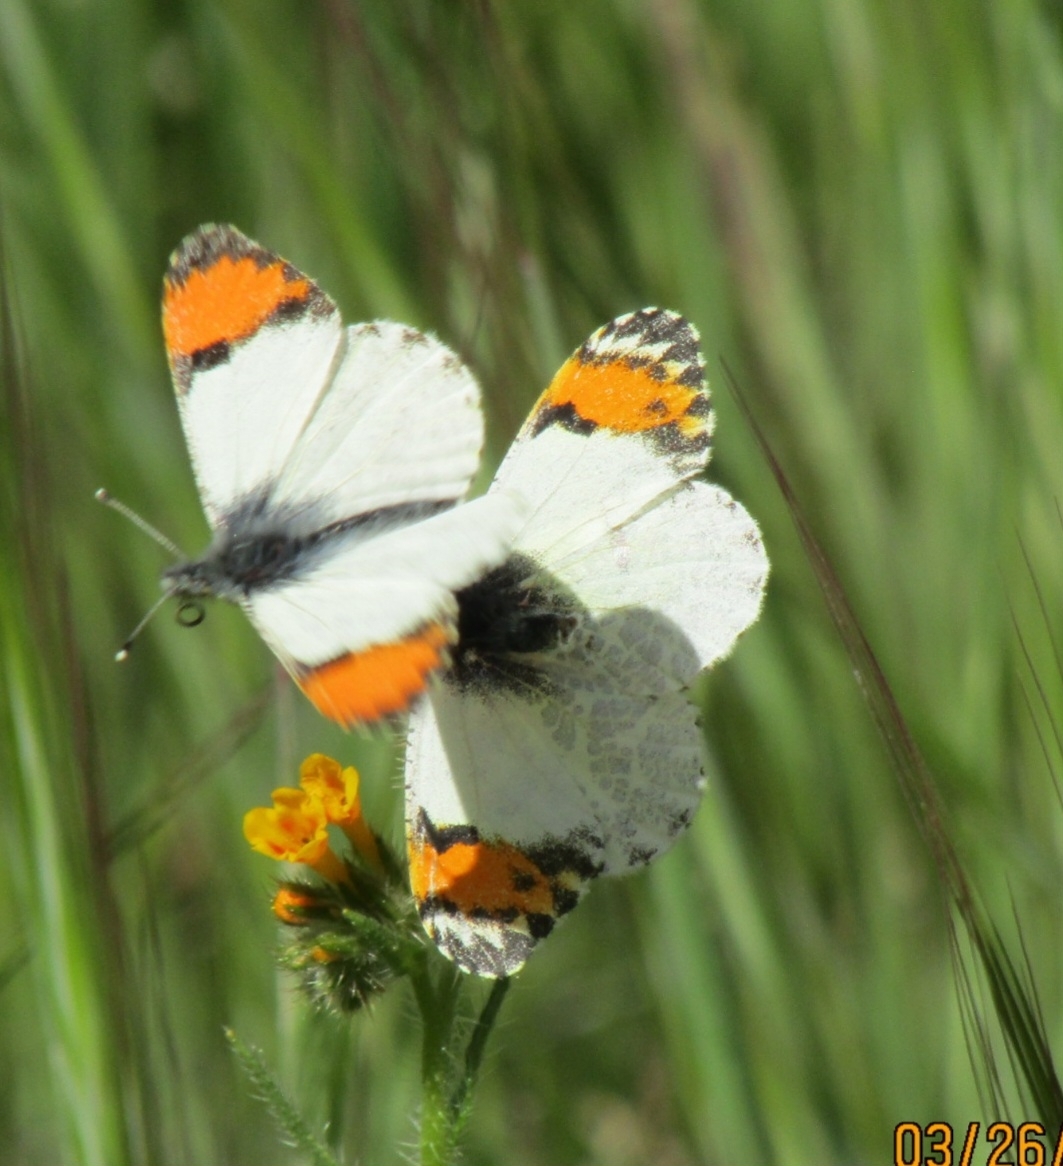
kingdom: Animalia
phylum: Arthropoda
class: Insecta
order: Lepidoptera
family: Pieridae
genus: Anthocharis
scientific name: Anthocharis sara
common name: Sara's orangetip
